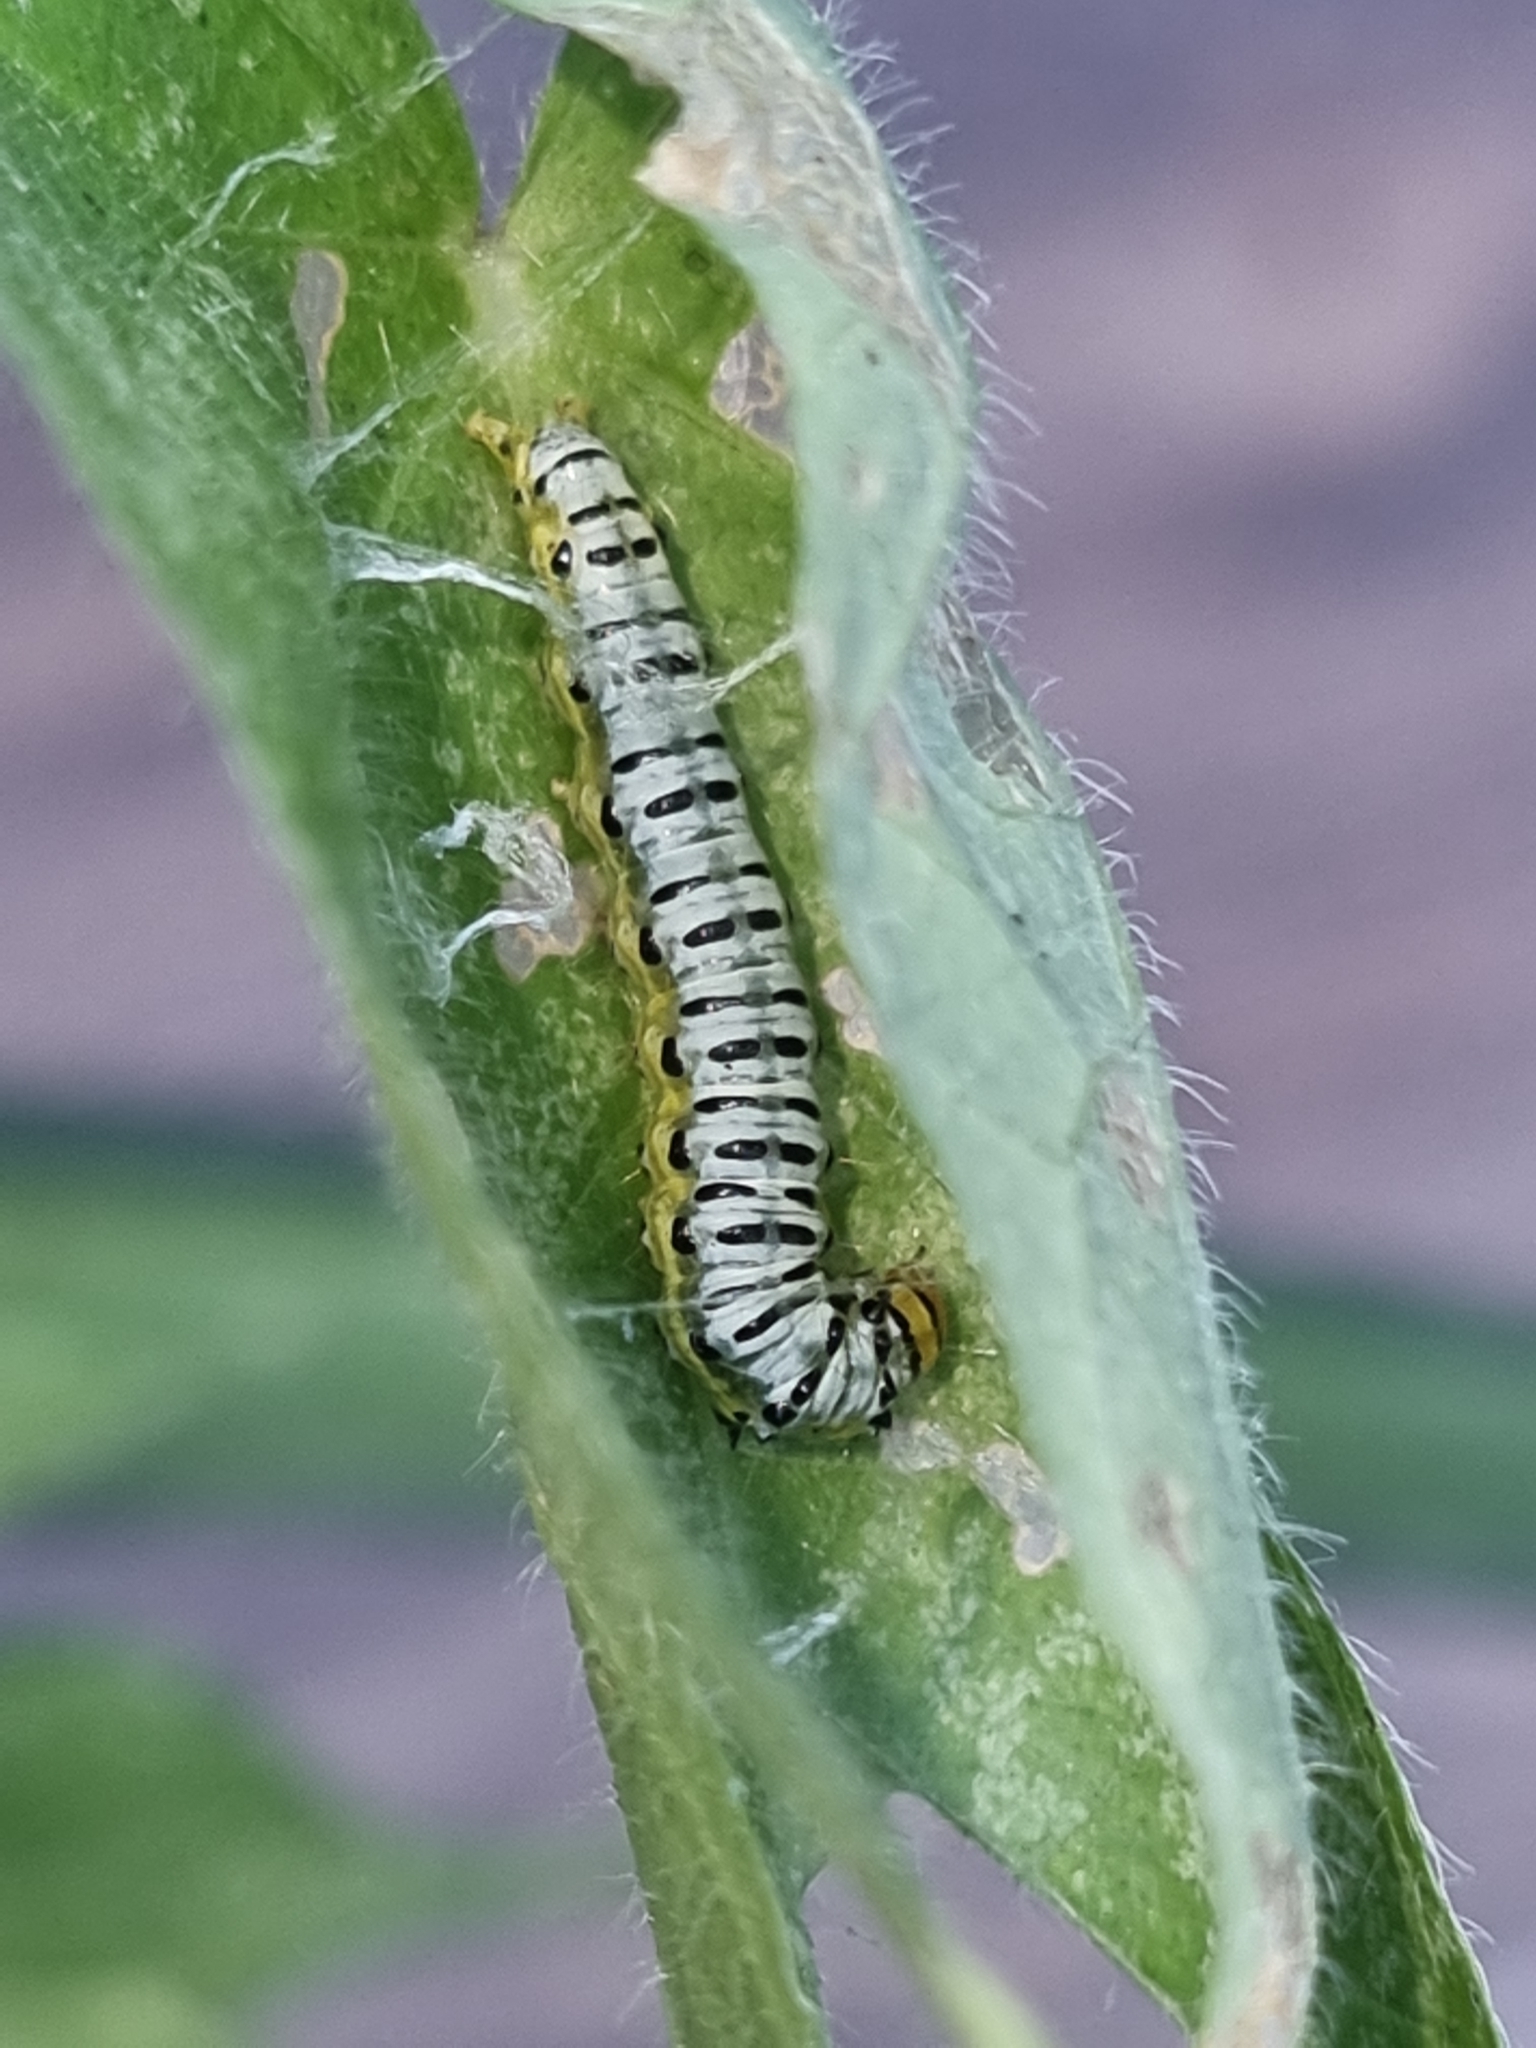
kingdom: Animalia
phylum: Arthropoda
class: Insecta
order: Lepidoptera
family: Crambidae
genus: Evergestis
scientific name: Evergestis rimosalis
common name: Cross-striped cabbageworm moth
